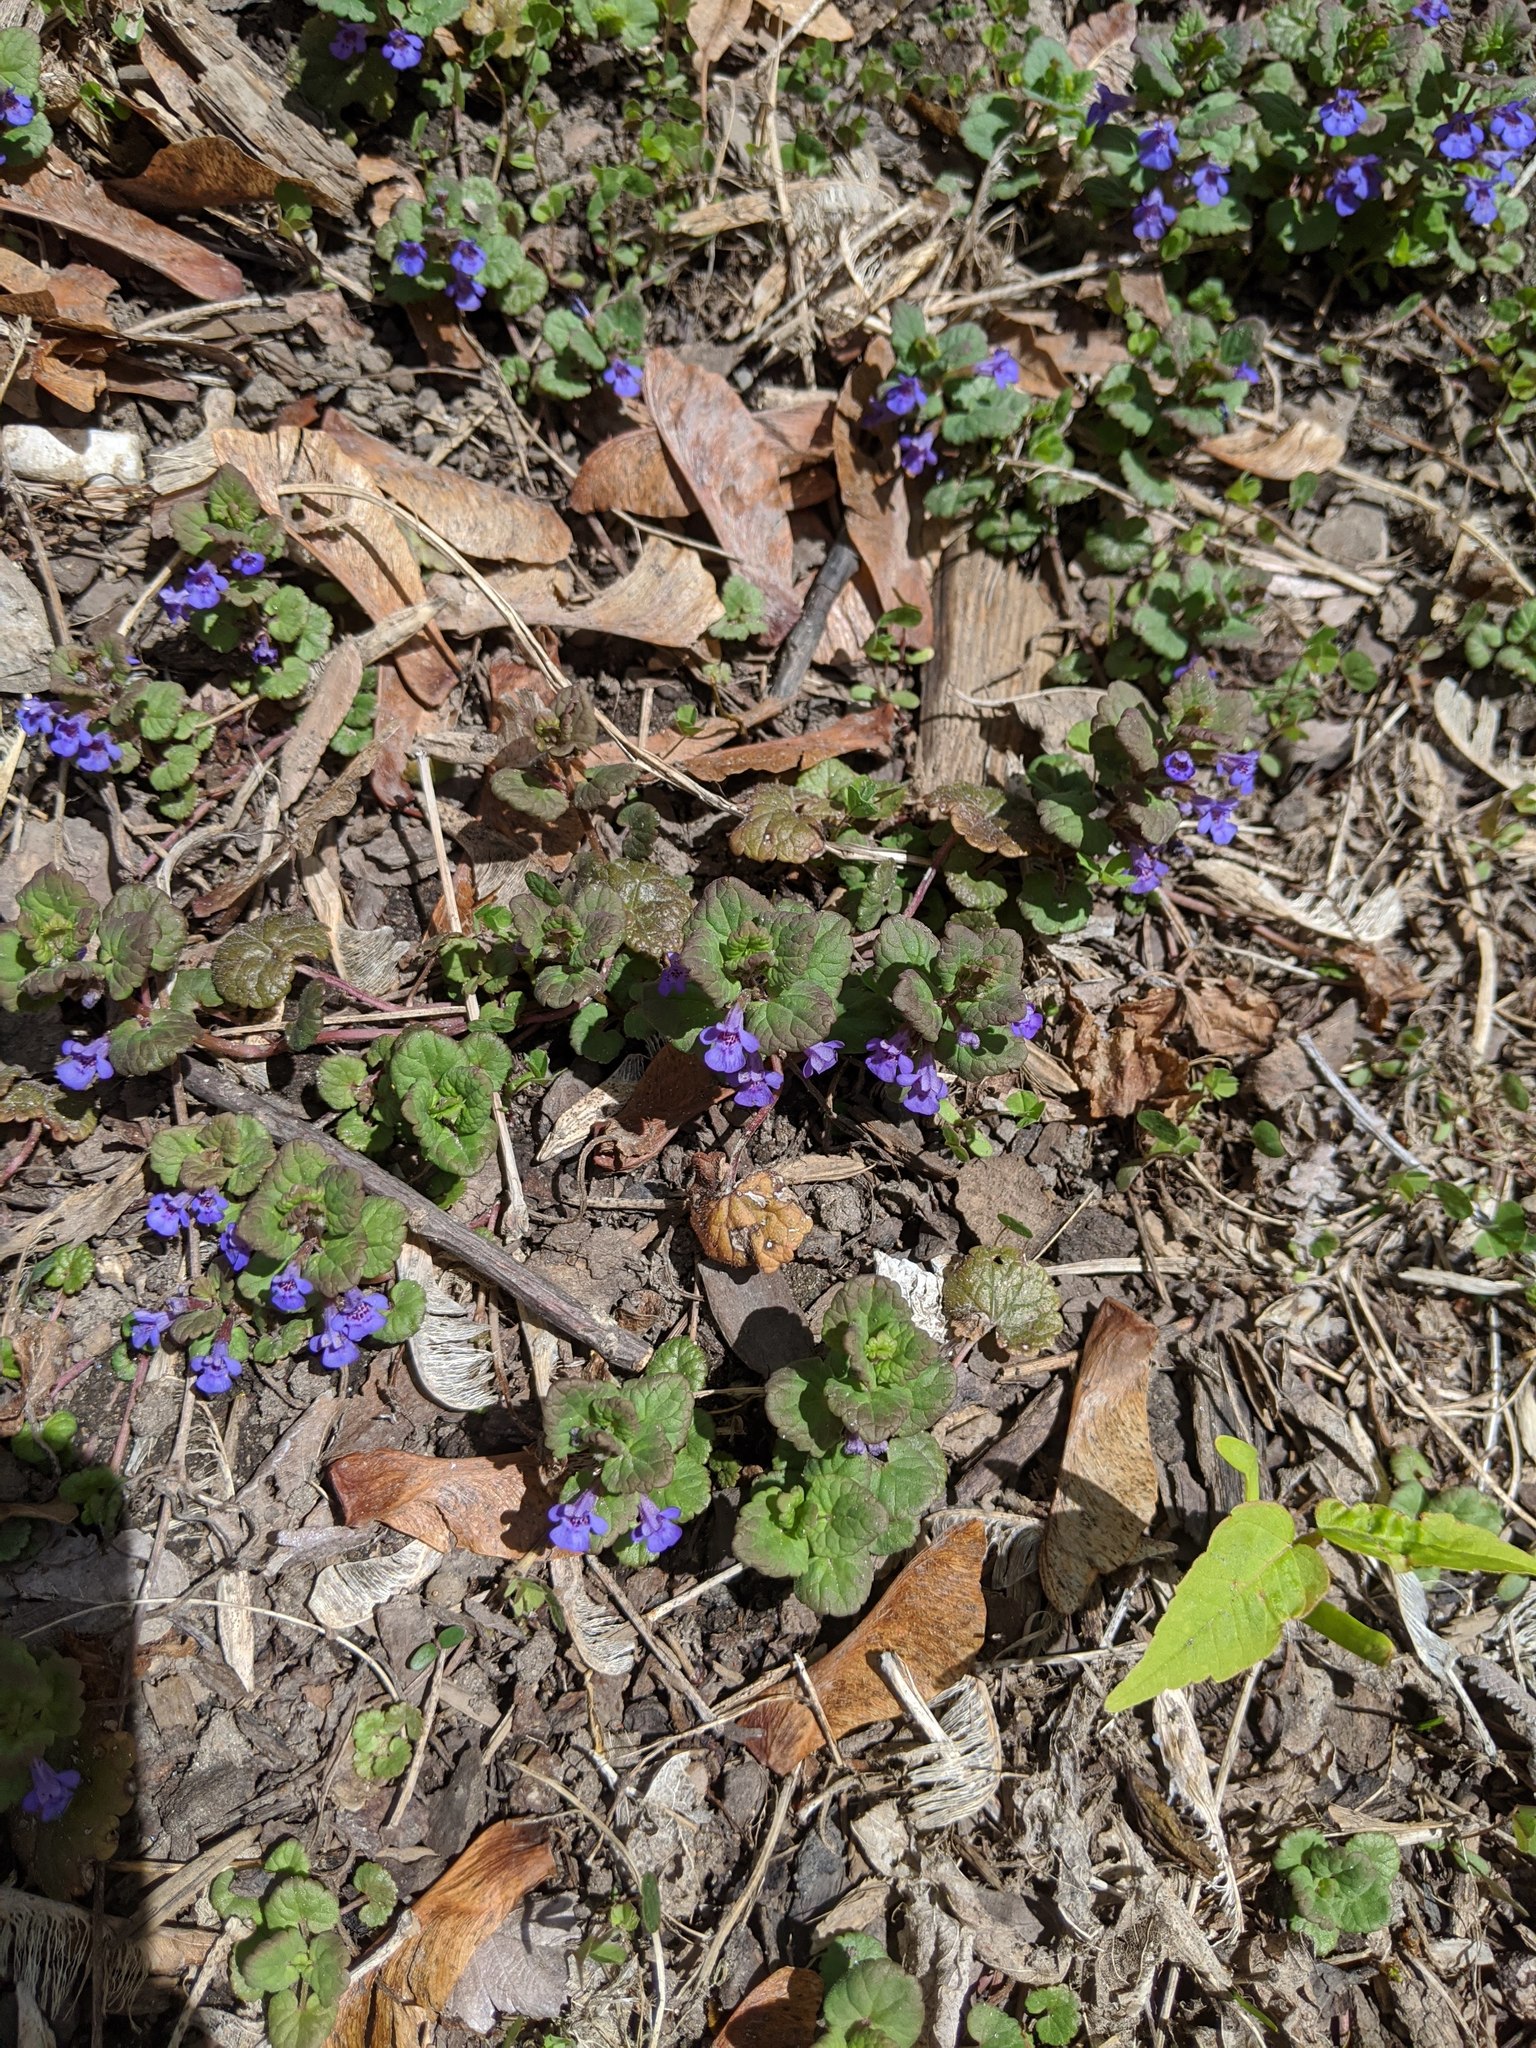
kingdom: Plantae
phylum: Tracheophyta
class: Magnoliopsida
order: Lamiales
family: Lamiaceae
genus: Glechoma
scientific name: Glechoma hederacea
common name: Ground ivy
